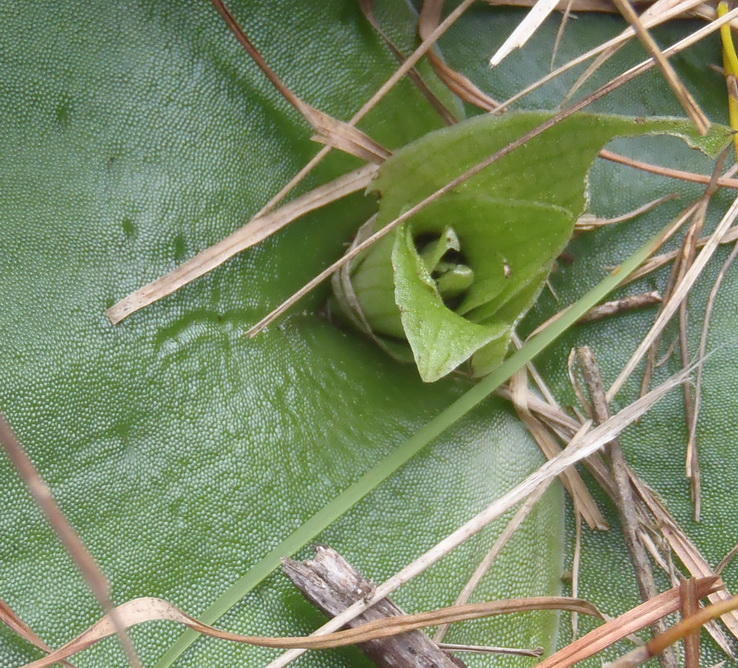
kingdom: Plantae
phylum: Tracheophyta
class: Liliopsida
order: Asparagales
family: Orchidaceae
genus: Satyrium
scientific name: Satyrium princeps
